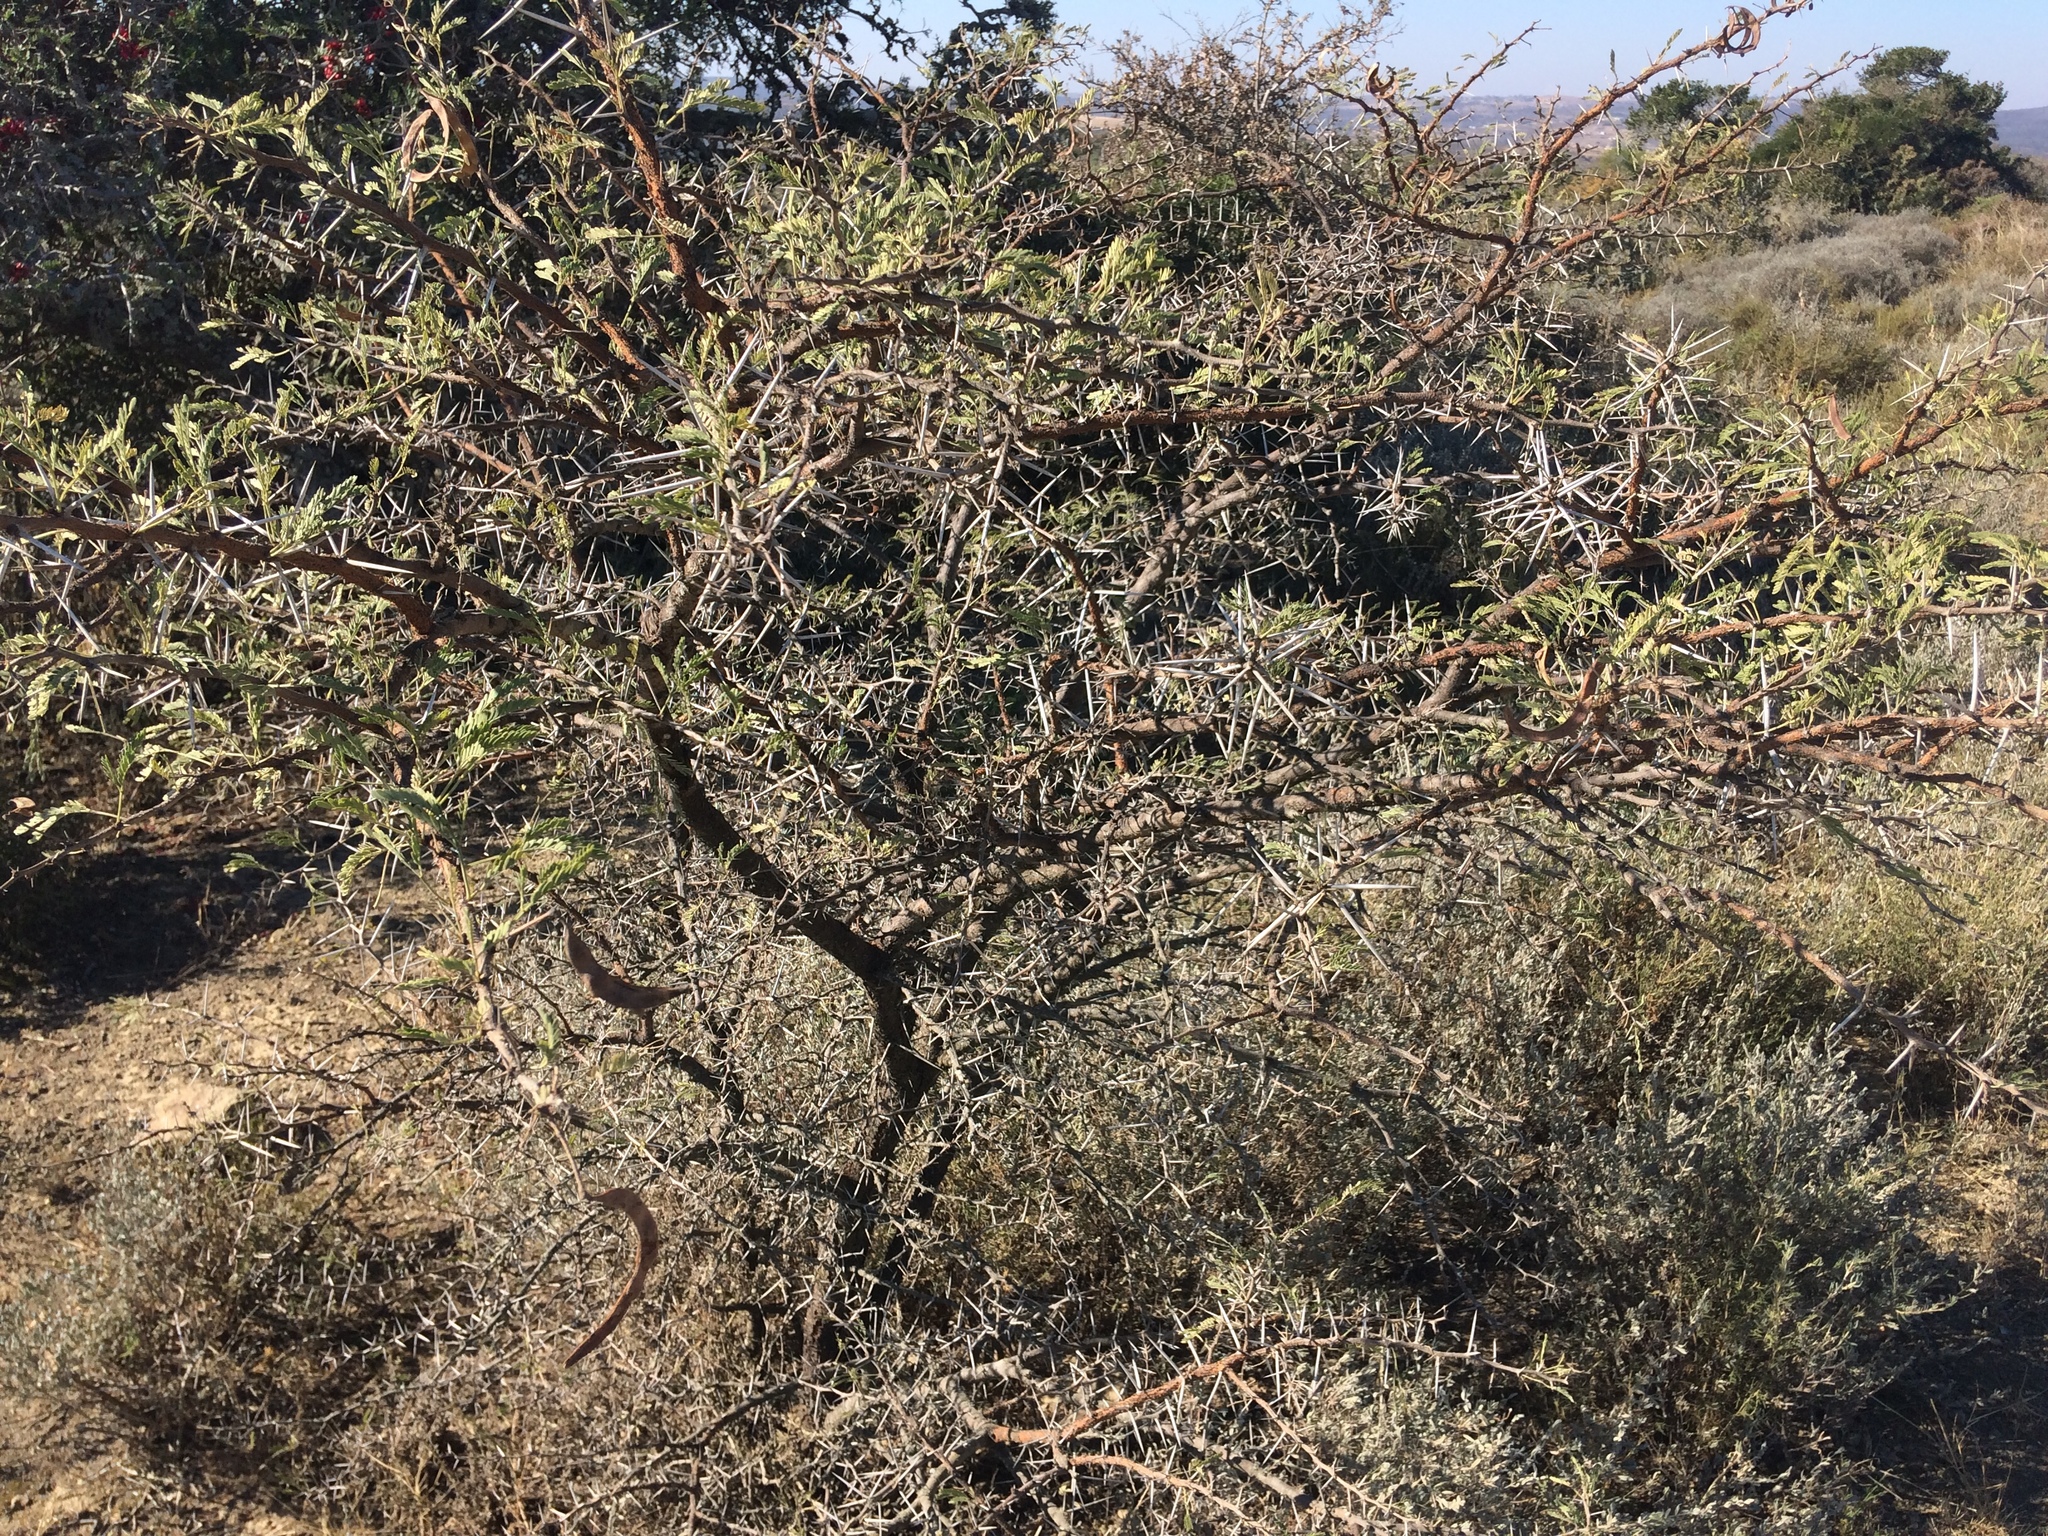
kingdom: Plantae
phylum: Tracheophyta
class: Magnoliopsida
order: Fabales
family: Fabaceae
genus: Vachellia
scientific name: Vachellia karroo
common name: Sweet thorn
